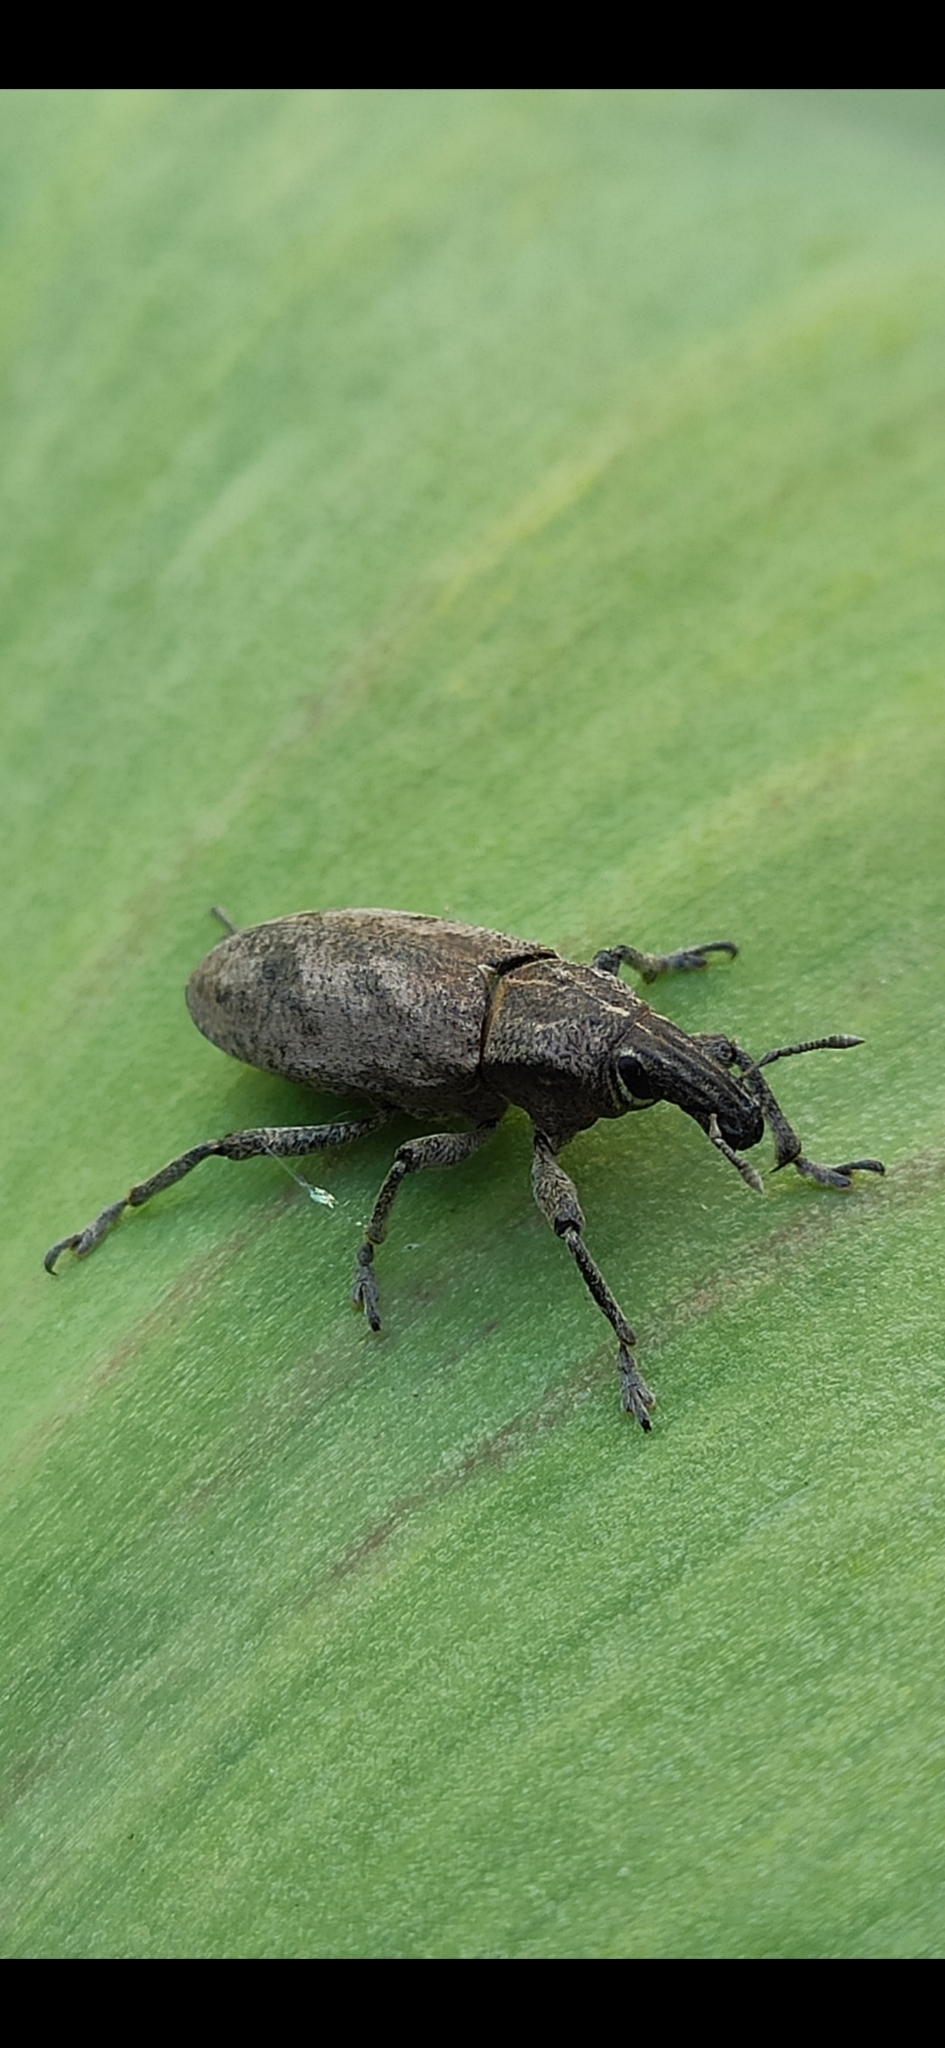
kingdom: Animalia
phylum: Arthropoda
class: Insecta
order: Coleoptera
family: Curculionidae
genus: Cleonis
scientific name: Cleonis pigra
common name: Large thistle weevil
